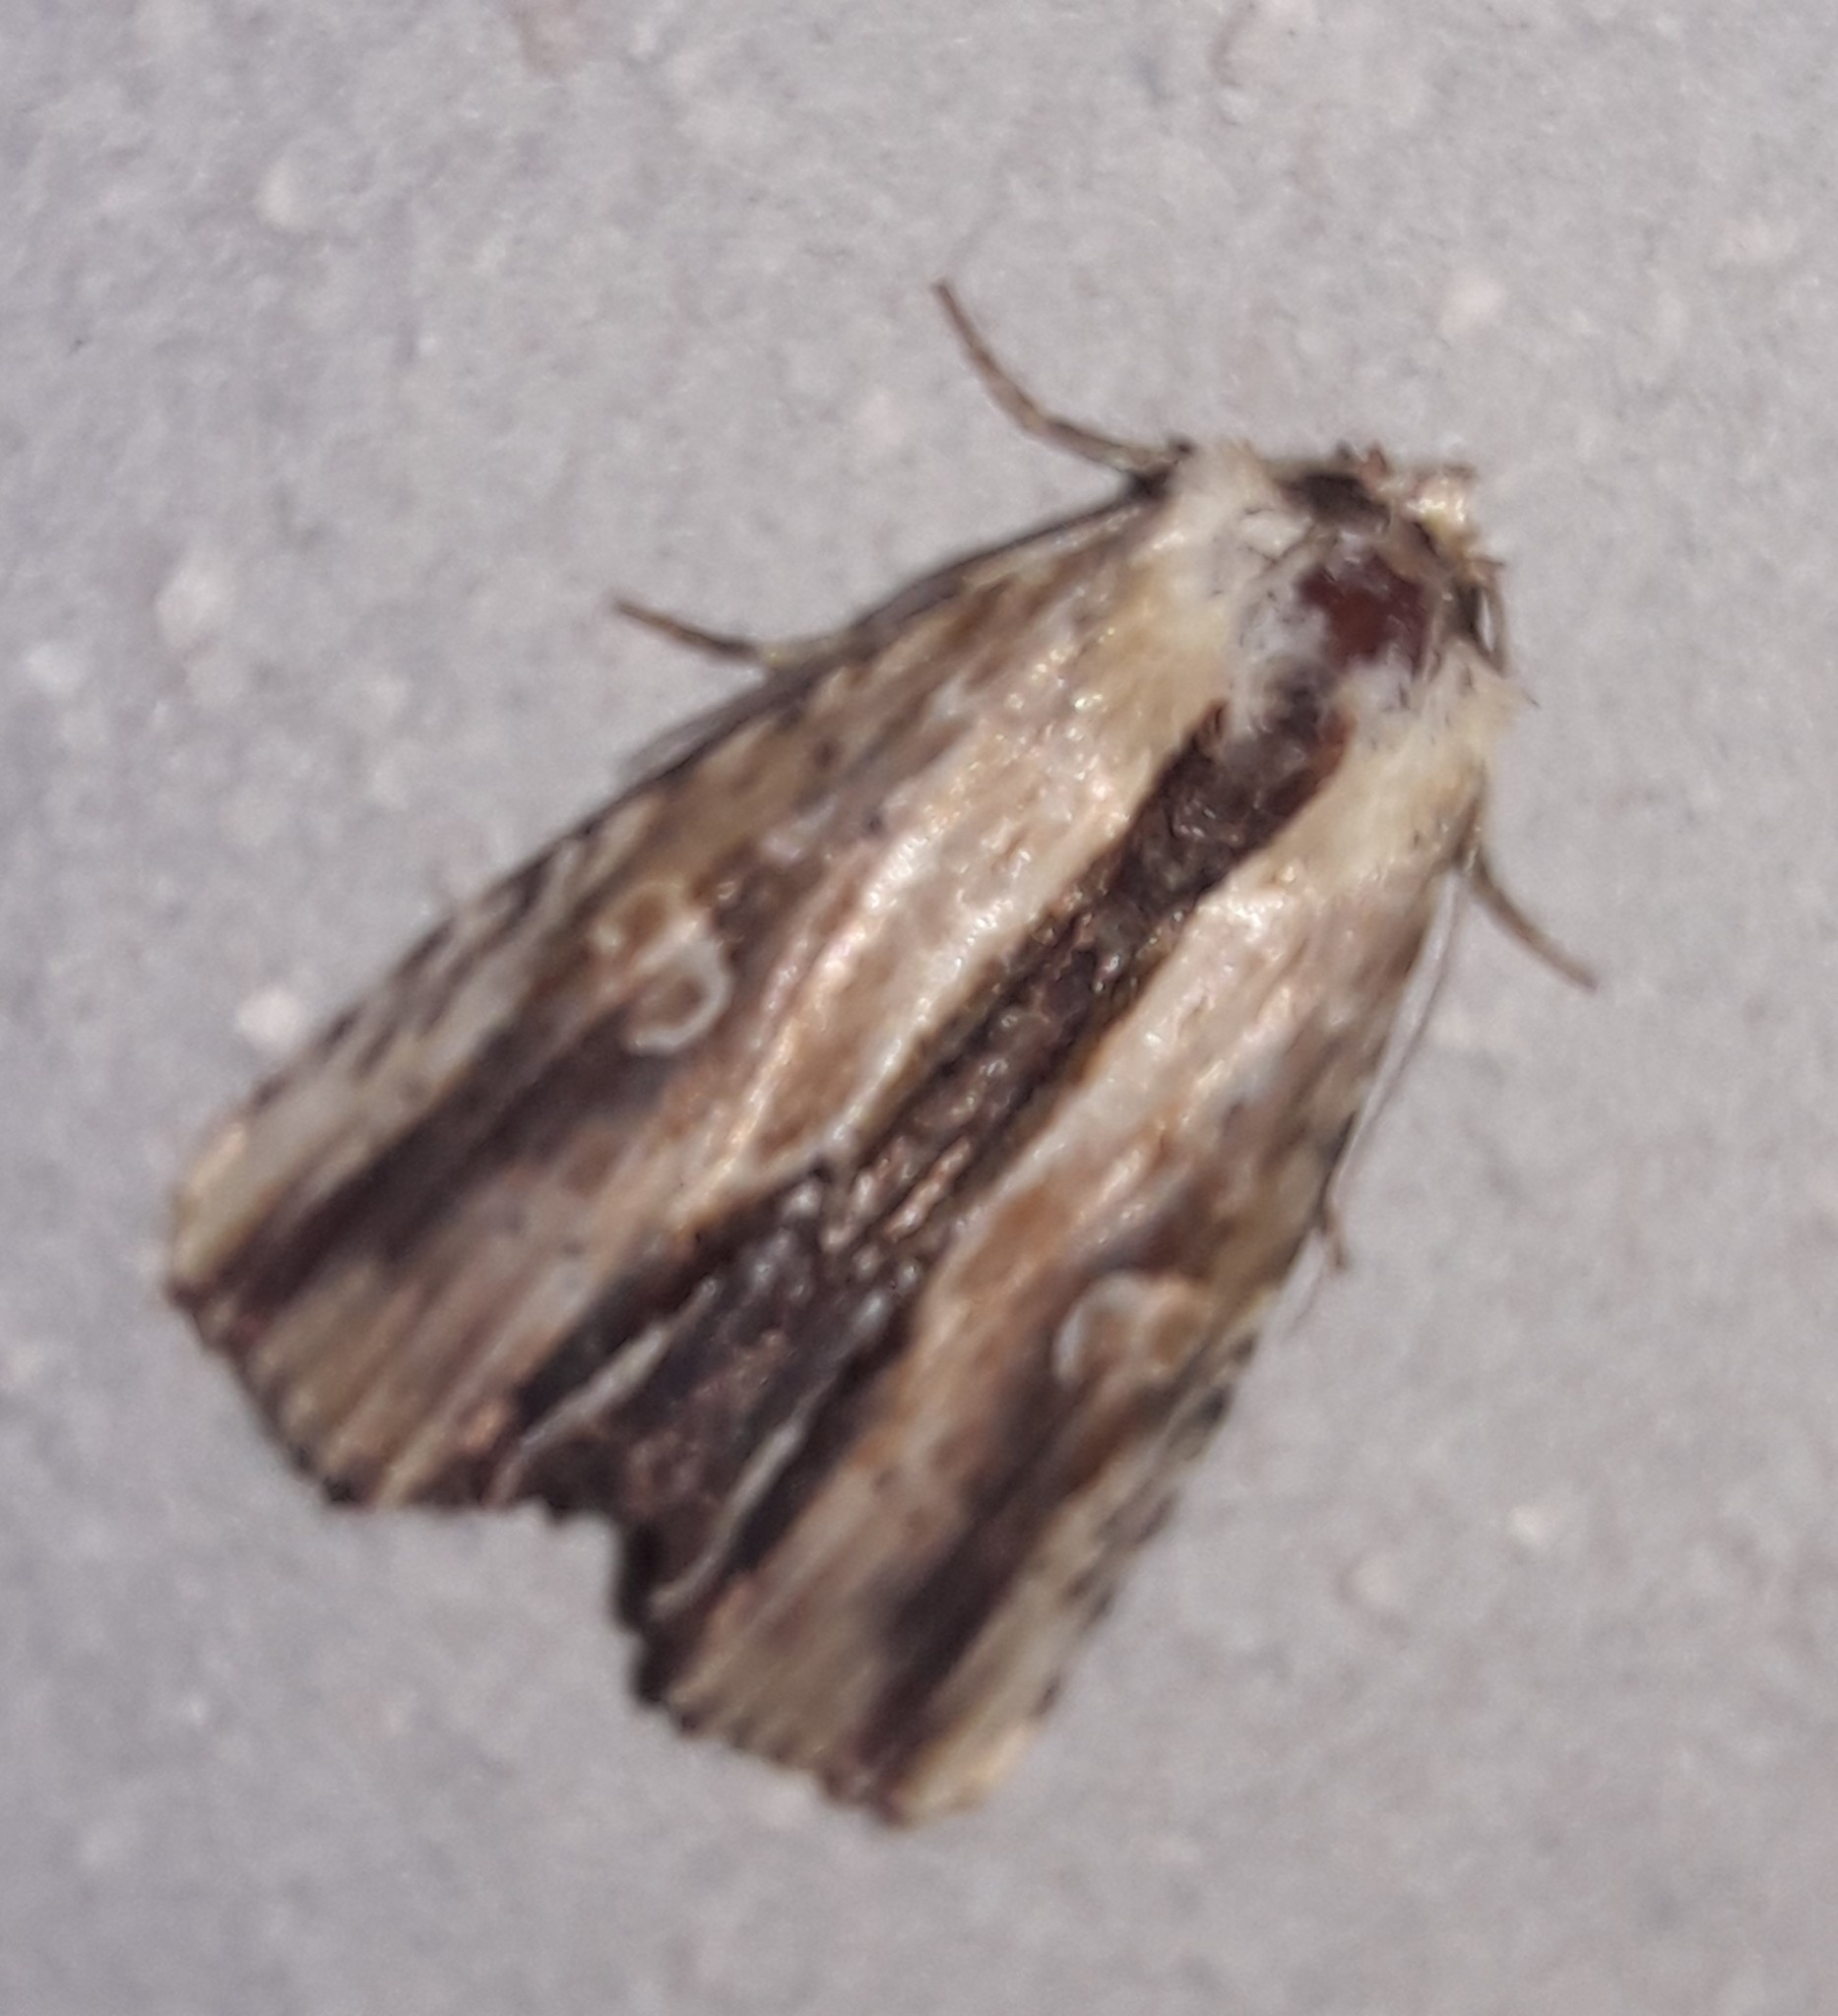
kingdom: Animalia
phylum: Arthropoda
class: Insecta
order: Lepidoptera
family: Noctuidae
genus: Antachara
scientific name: Antachara diminuta
